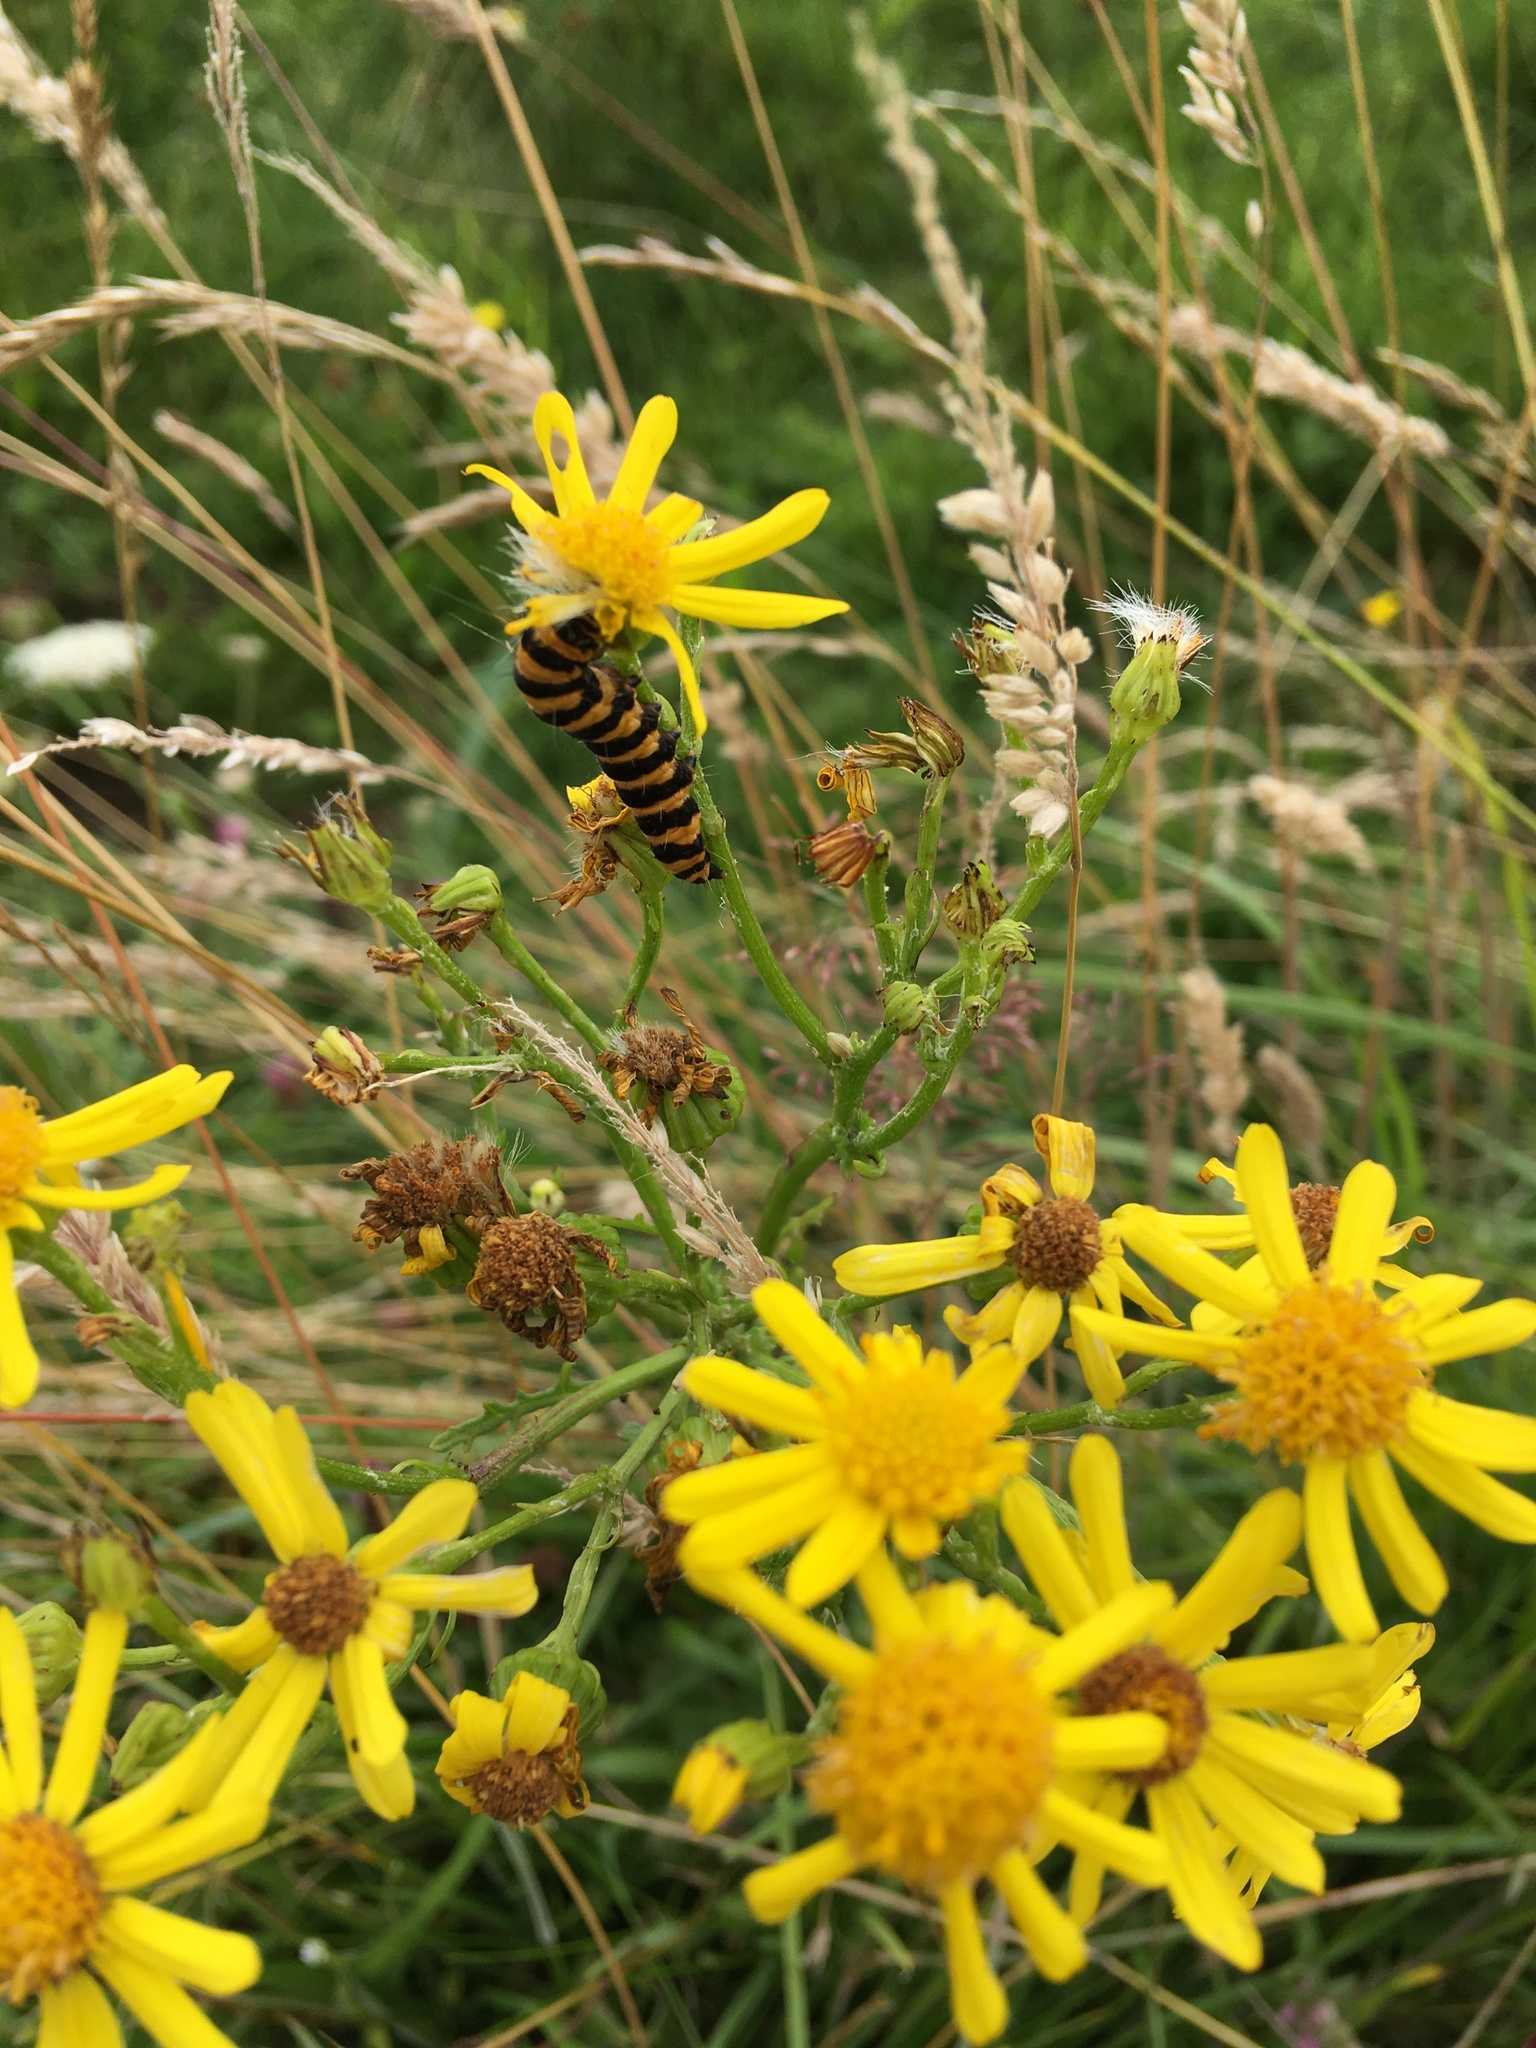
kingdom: Animalia
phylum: Arthropoda
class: Insecta
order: Lepidoptera
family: Erebidae
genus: Tyria
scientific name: Tyria jacobaeae
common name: Cinnabar
